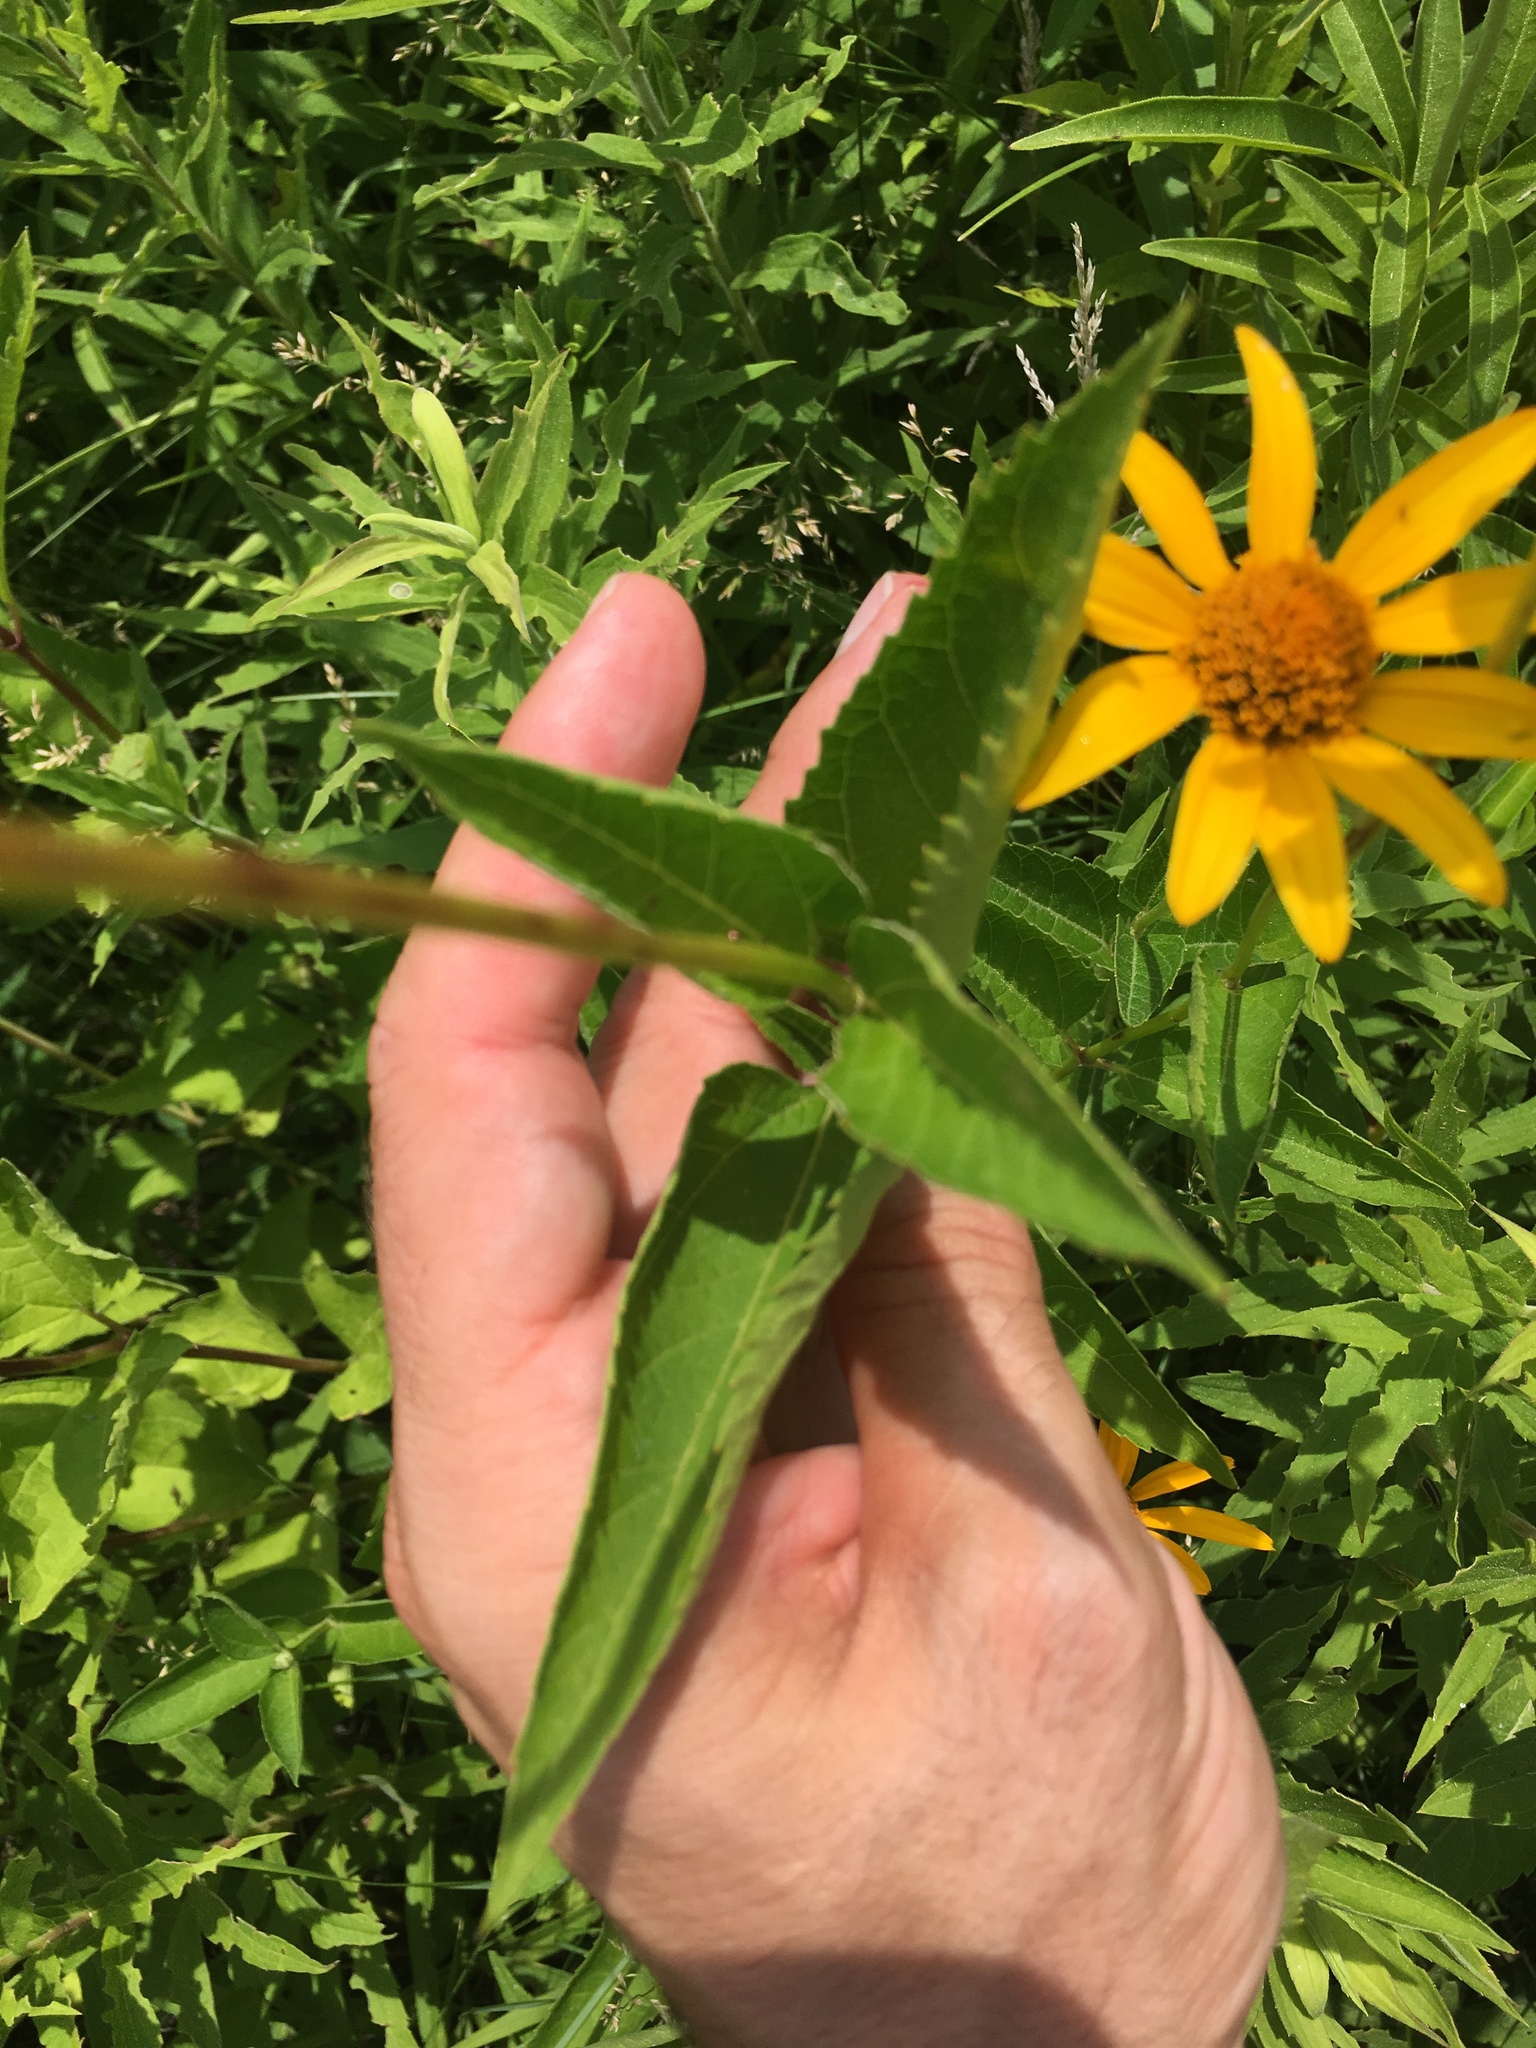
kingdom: Plantae
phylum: Tracheophyta
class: Magnoliopsida
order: Asterales
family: Asteraceae
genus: Heliopsis
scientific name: Heliopsis helianthoides
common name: False sunflower
